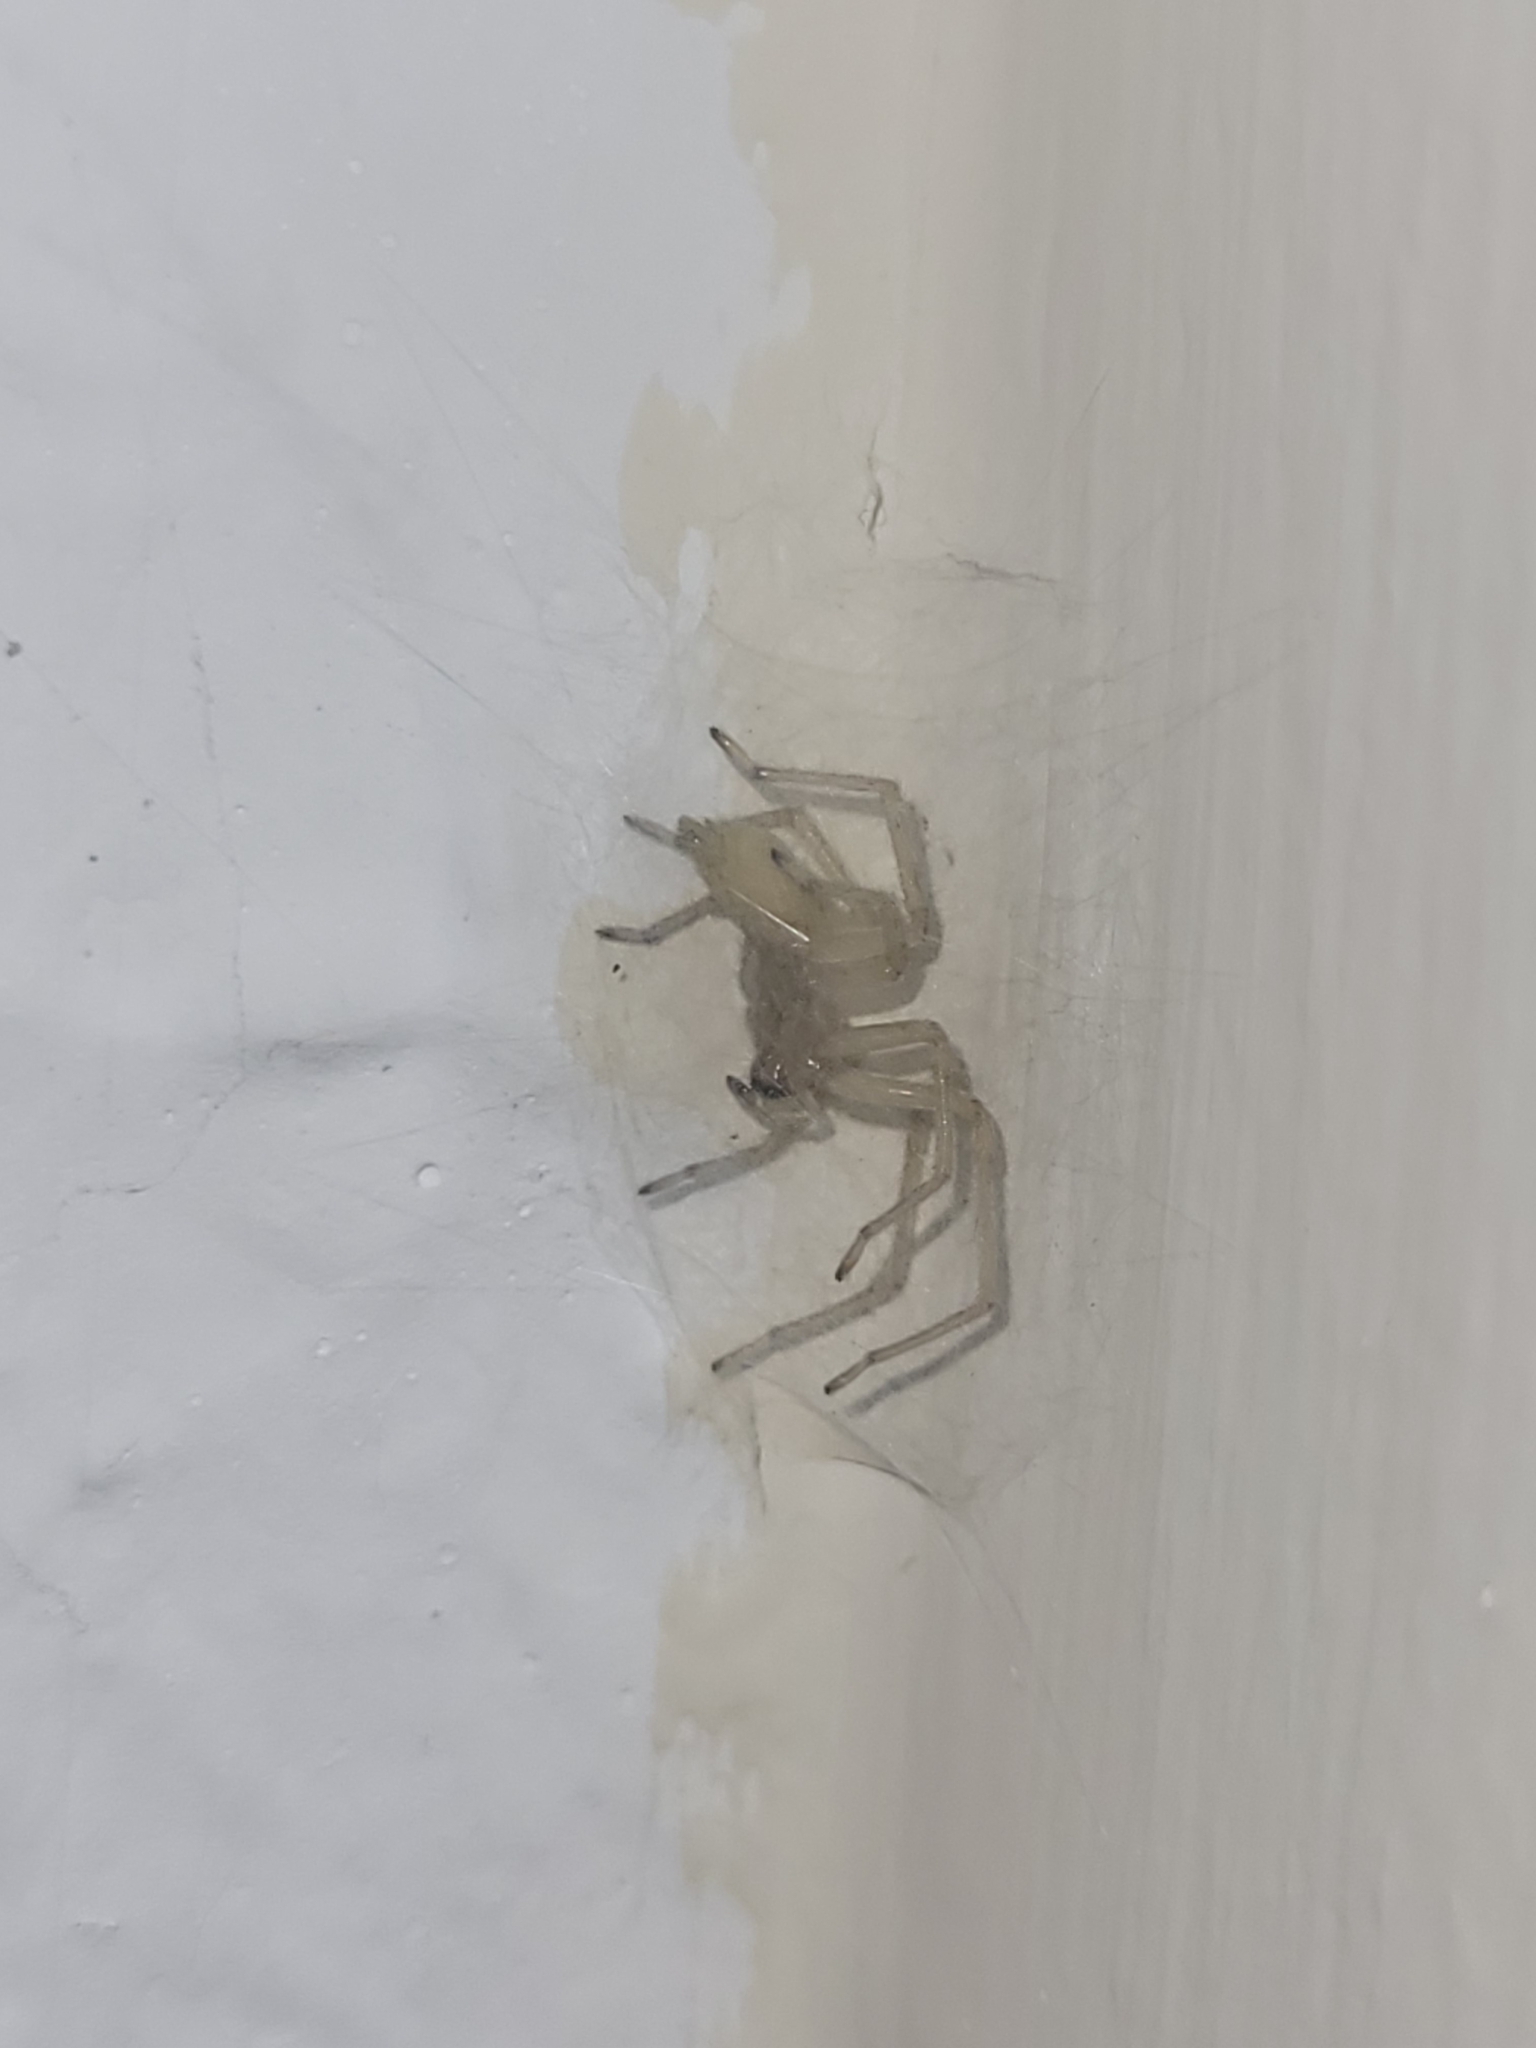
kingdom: Animalia
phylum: Arthropoda
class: Arachnida
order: Araneae
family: Cheiracanthiidae
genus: Cheiracanthium
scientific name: Cheiracanthium
